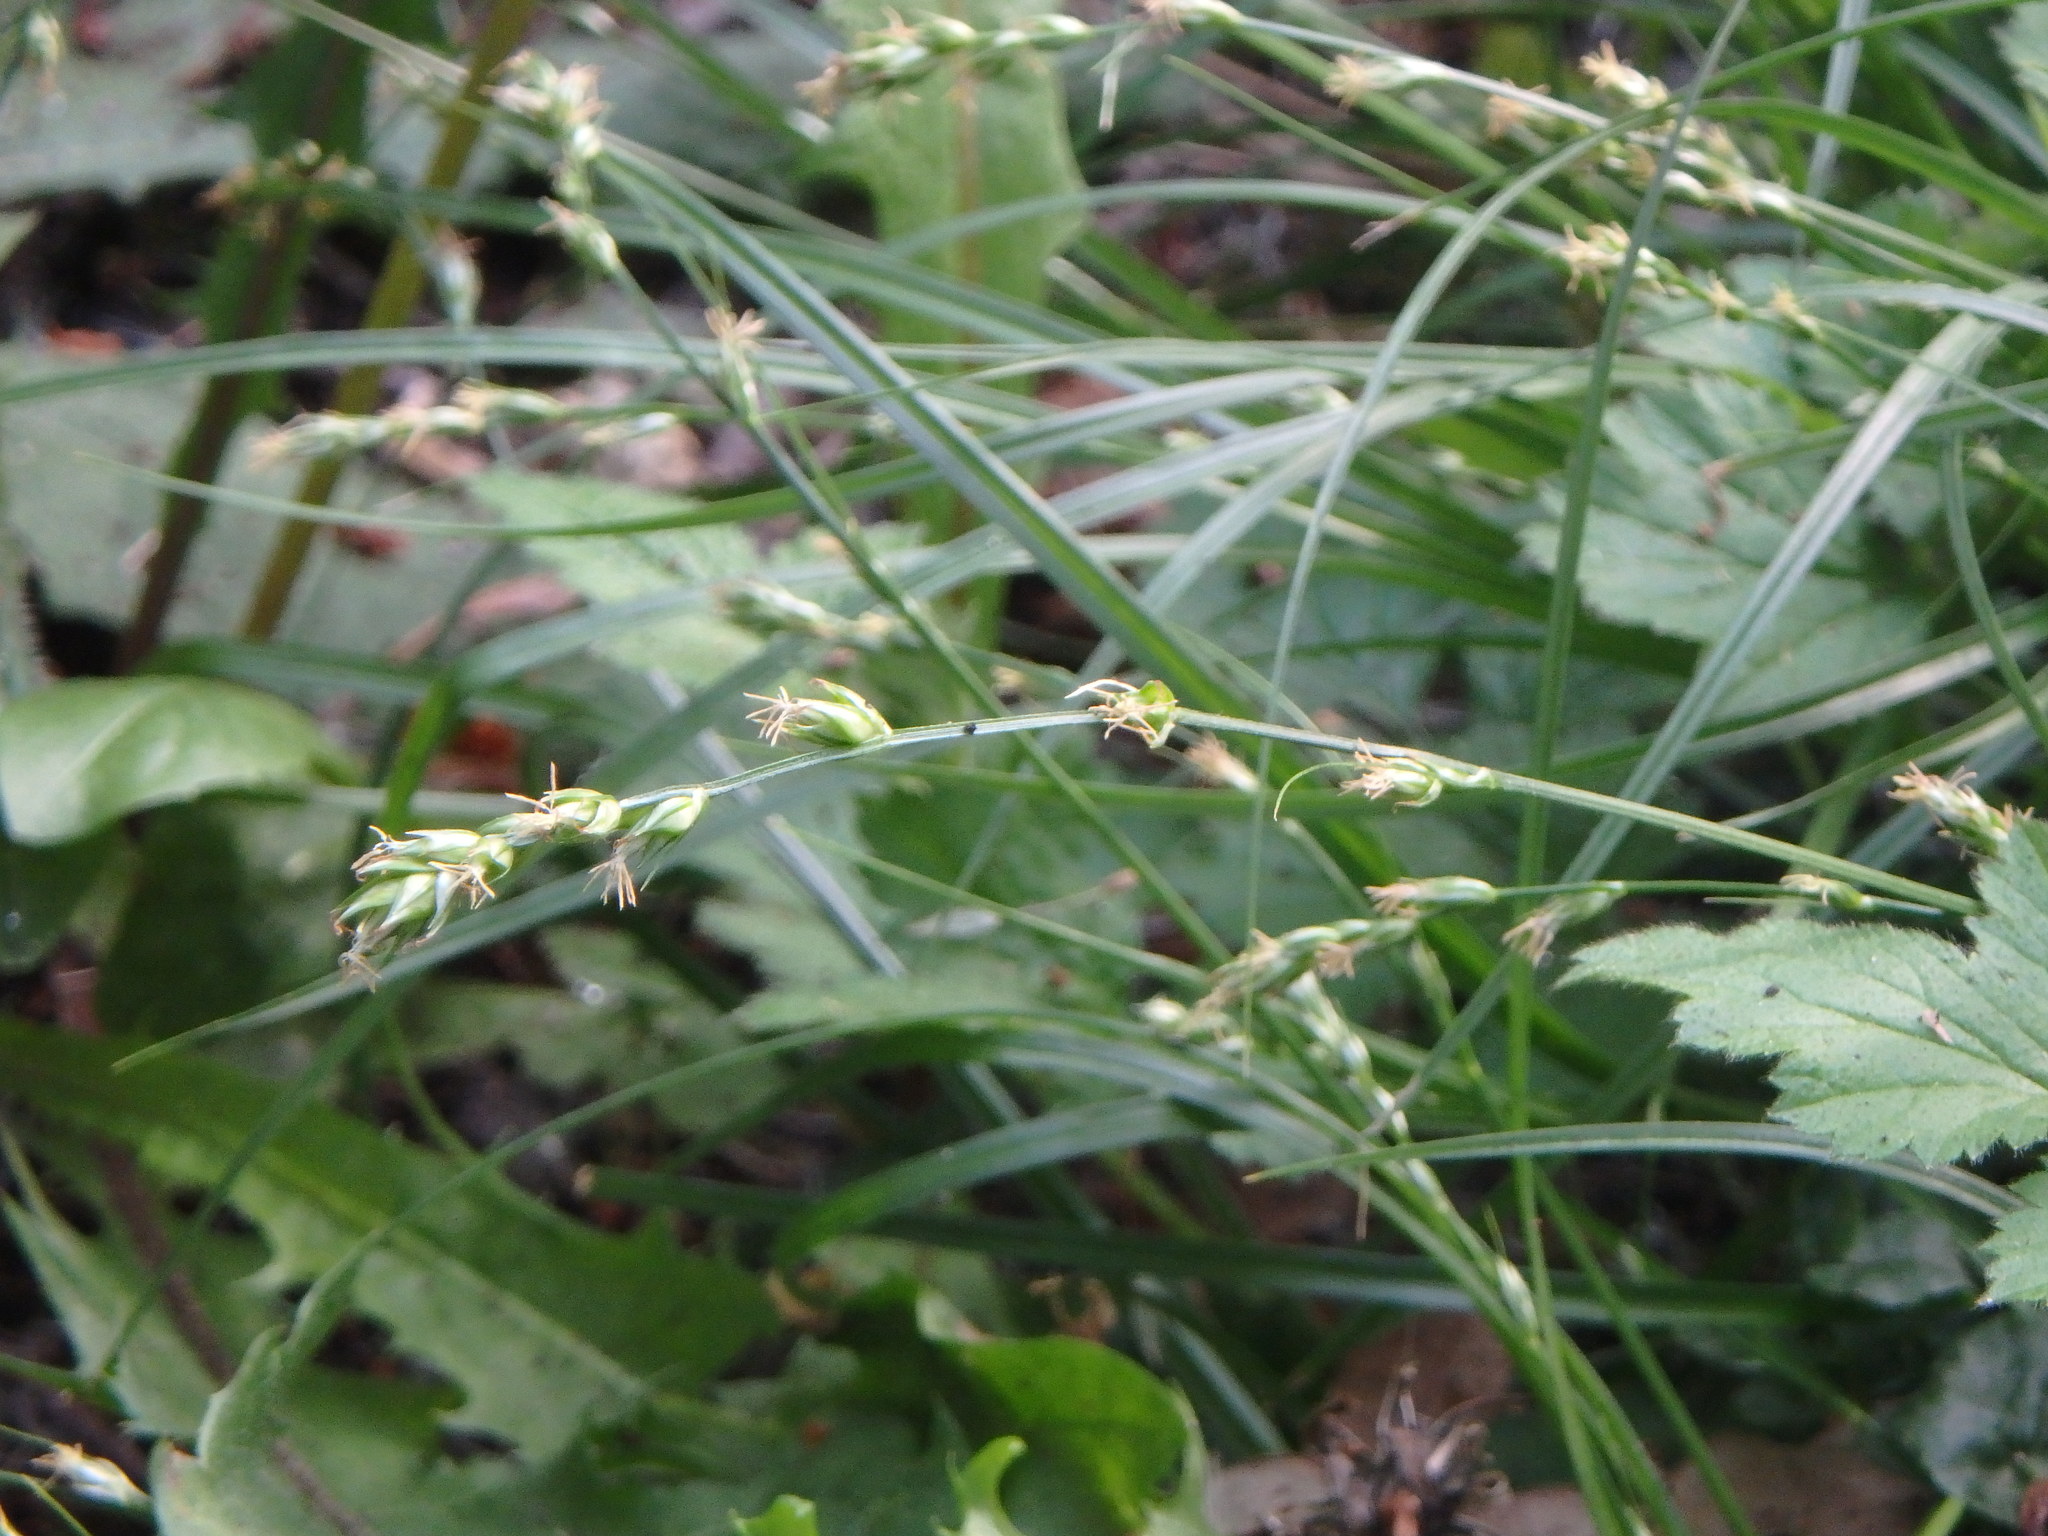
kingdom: Plantae
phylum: Tracheophyta
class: Liliopsida
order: Poales
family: Cyperaceae
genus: Carex
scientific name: Carex divulsa
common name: Grassland sedge
